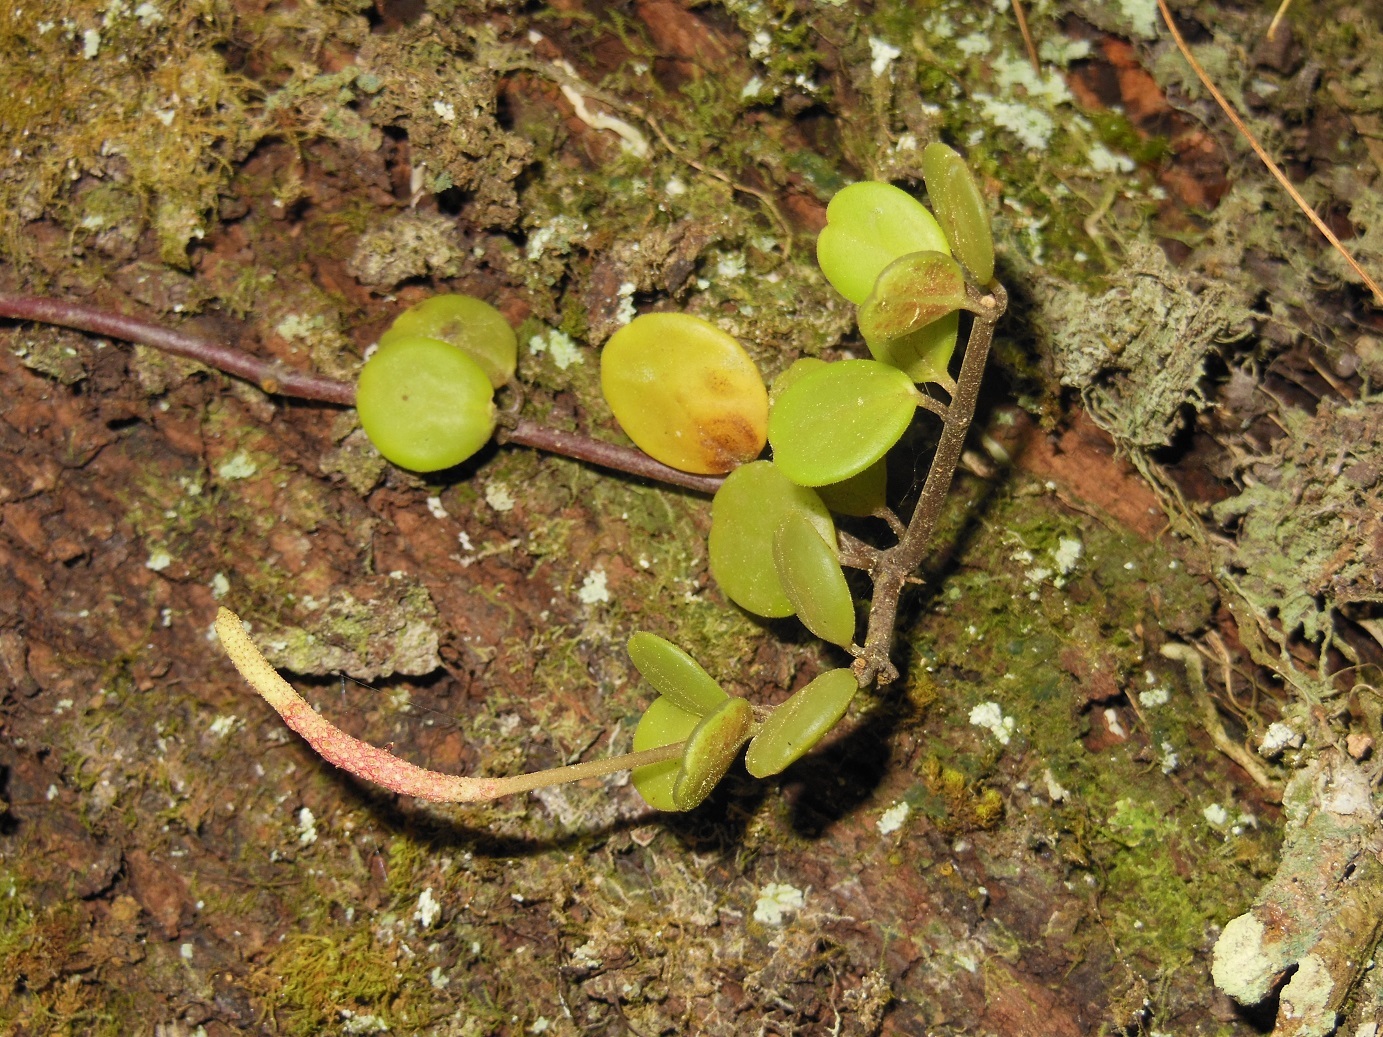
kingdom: Plantae
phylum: Tracheophyta
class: Magnoliopsida
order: Piperales
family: Piperaceae
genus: Peperomia
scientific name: Peperomia berlandieri
